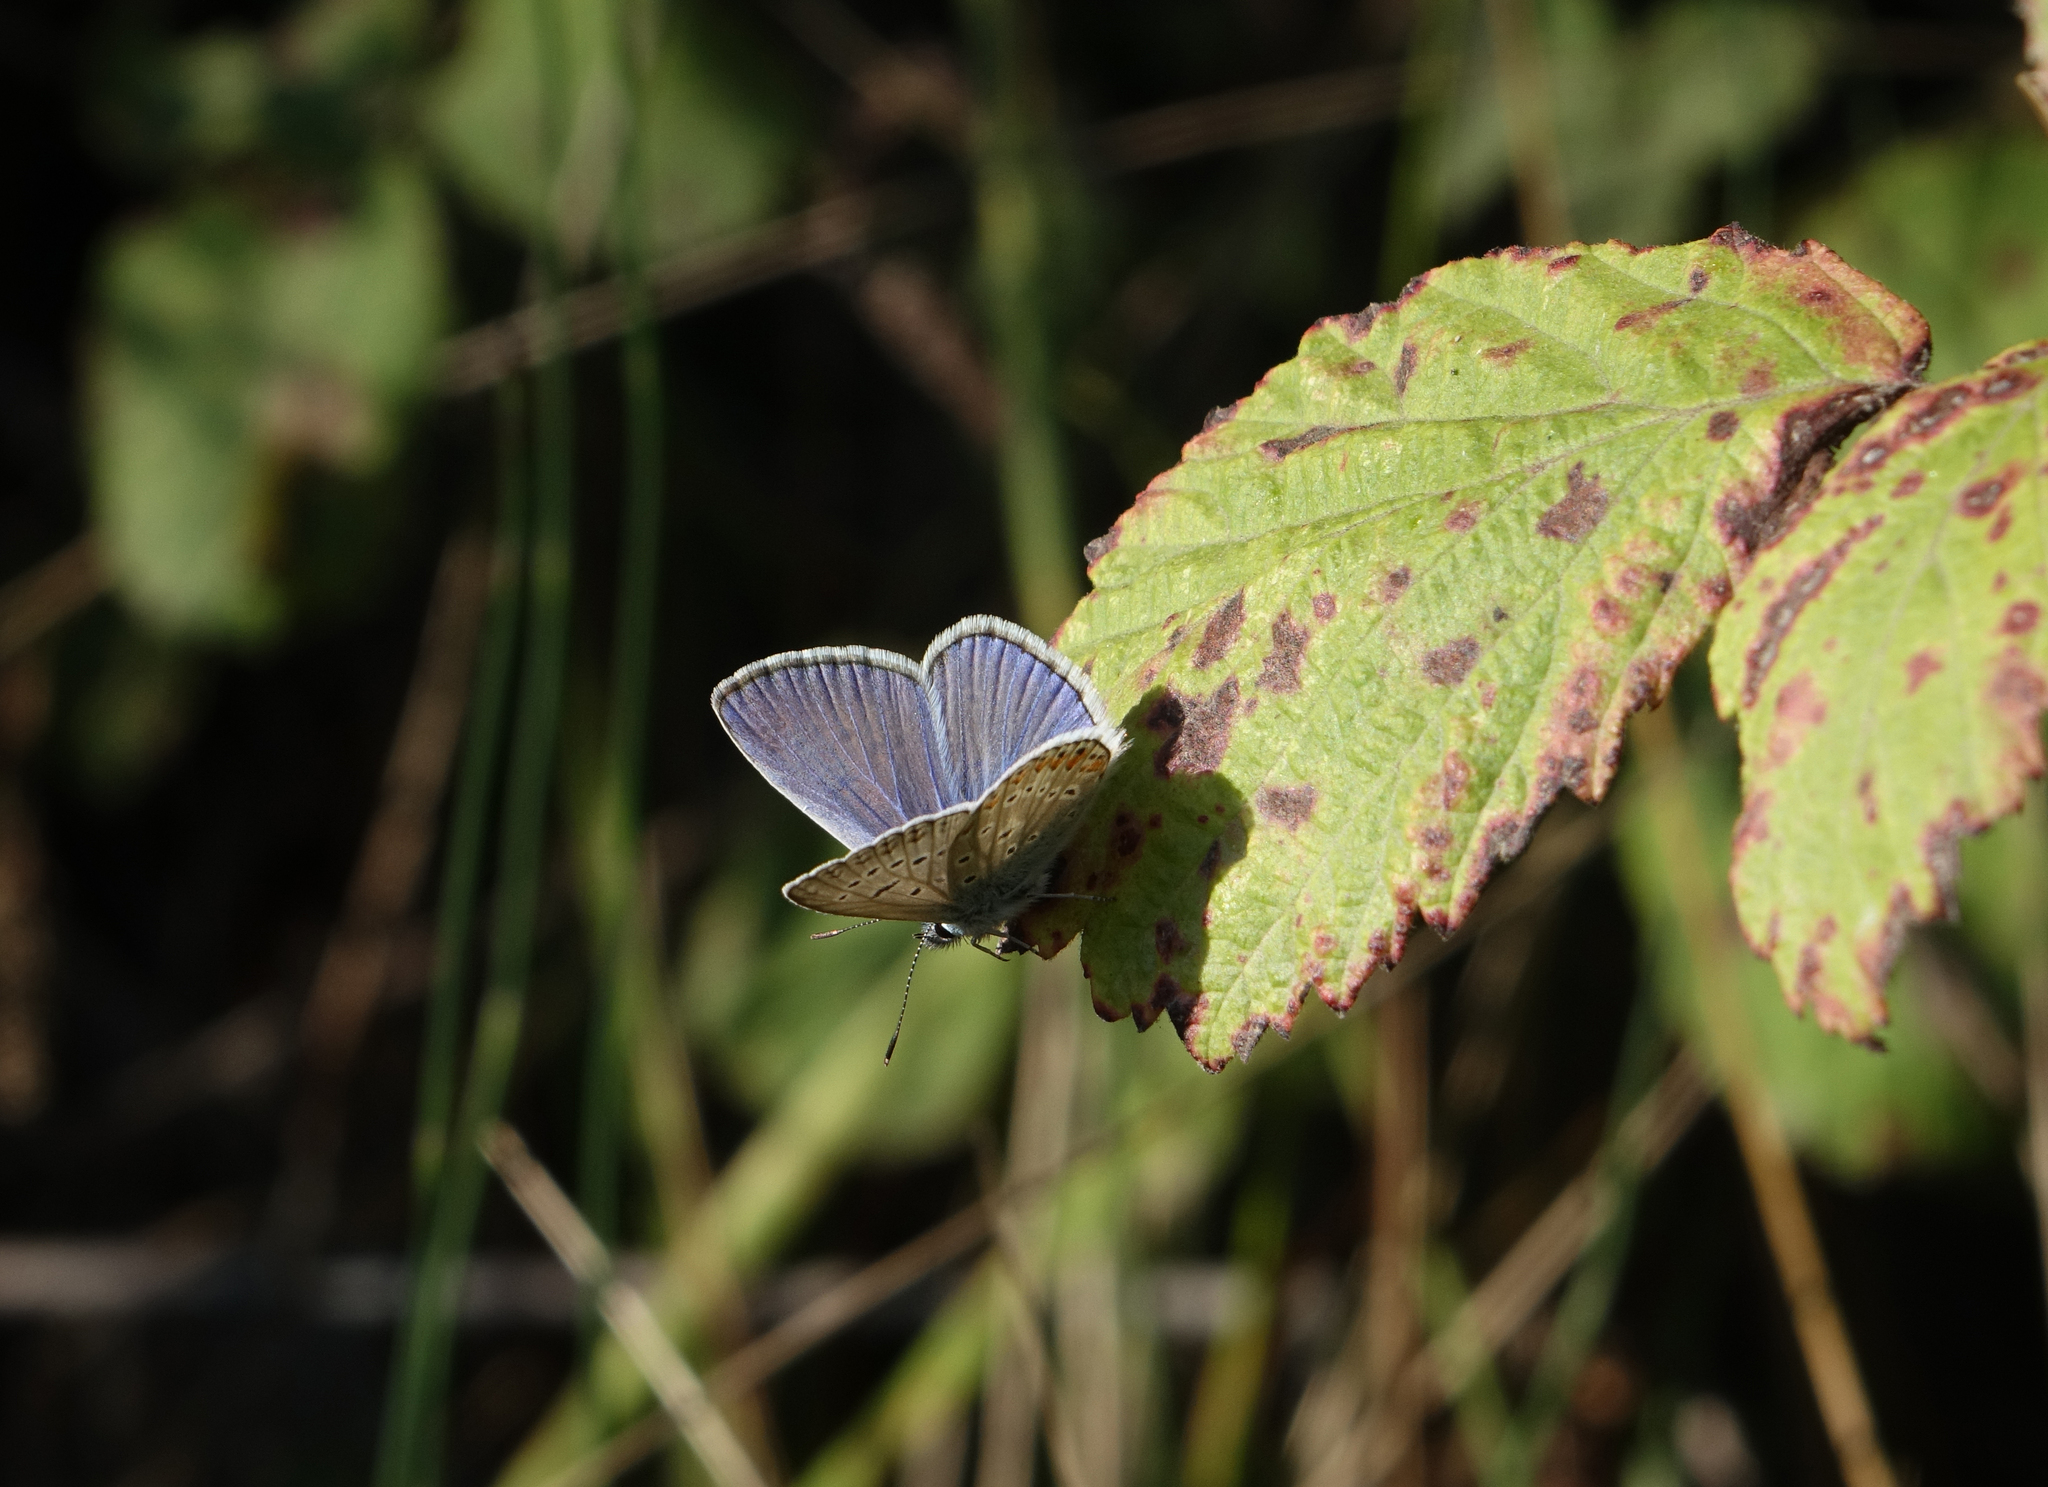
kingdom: Animalia
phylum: Arthropoda
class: Insecta
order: Lepidoptera
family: Lycaenidae
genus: Polyommatus
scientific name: Polyommatus icarus
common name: Common blue
